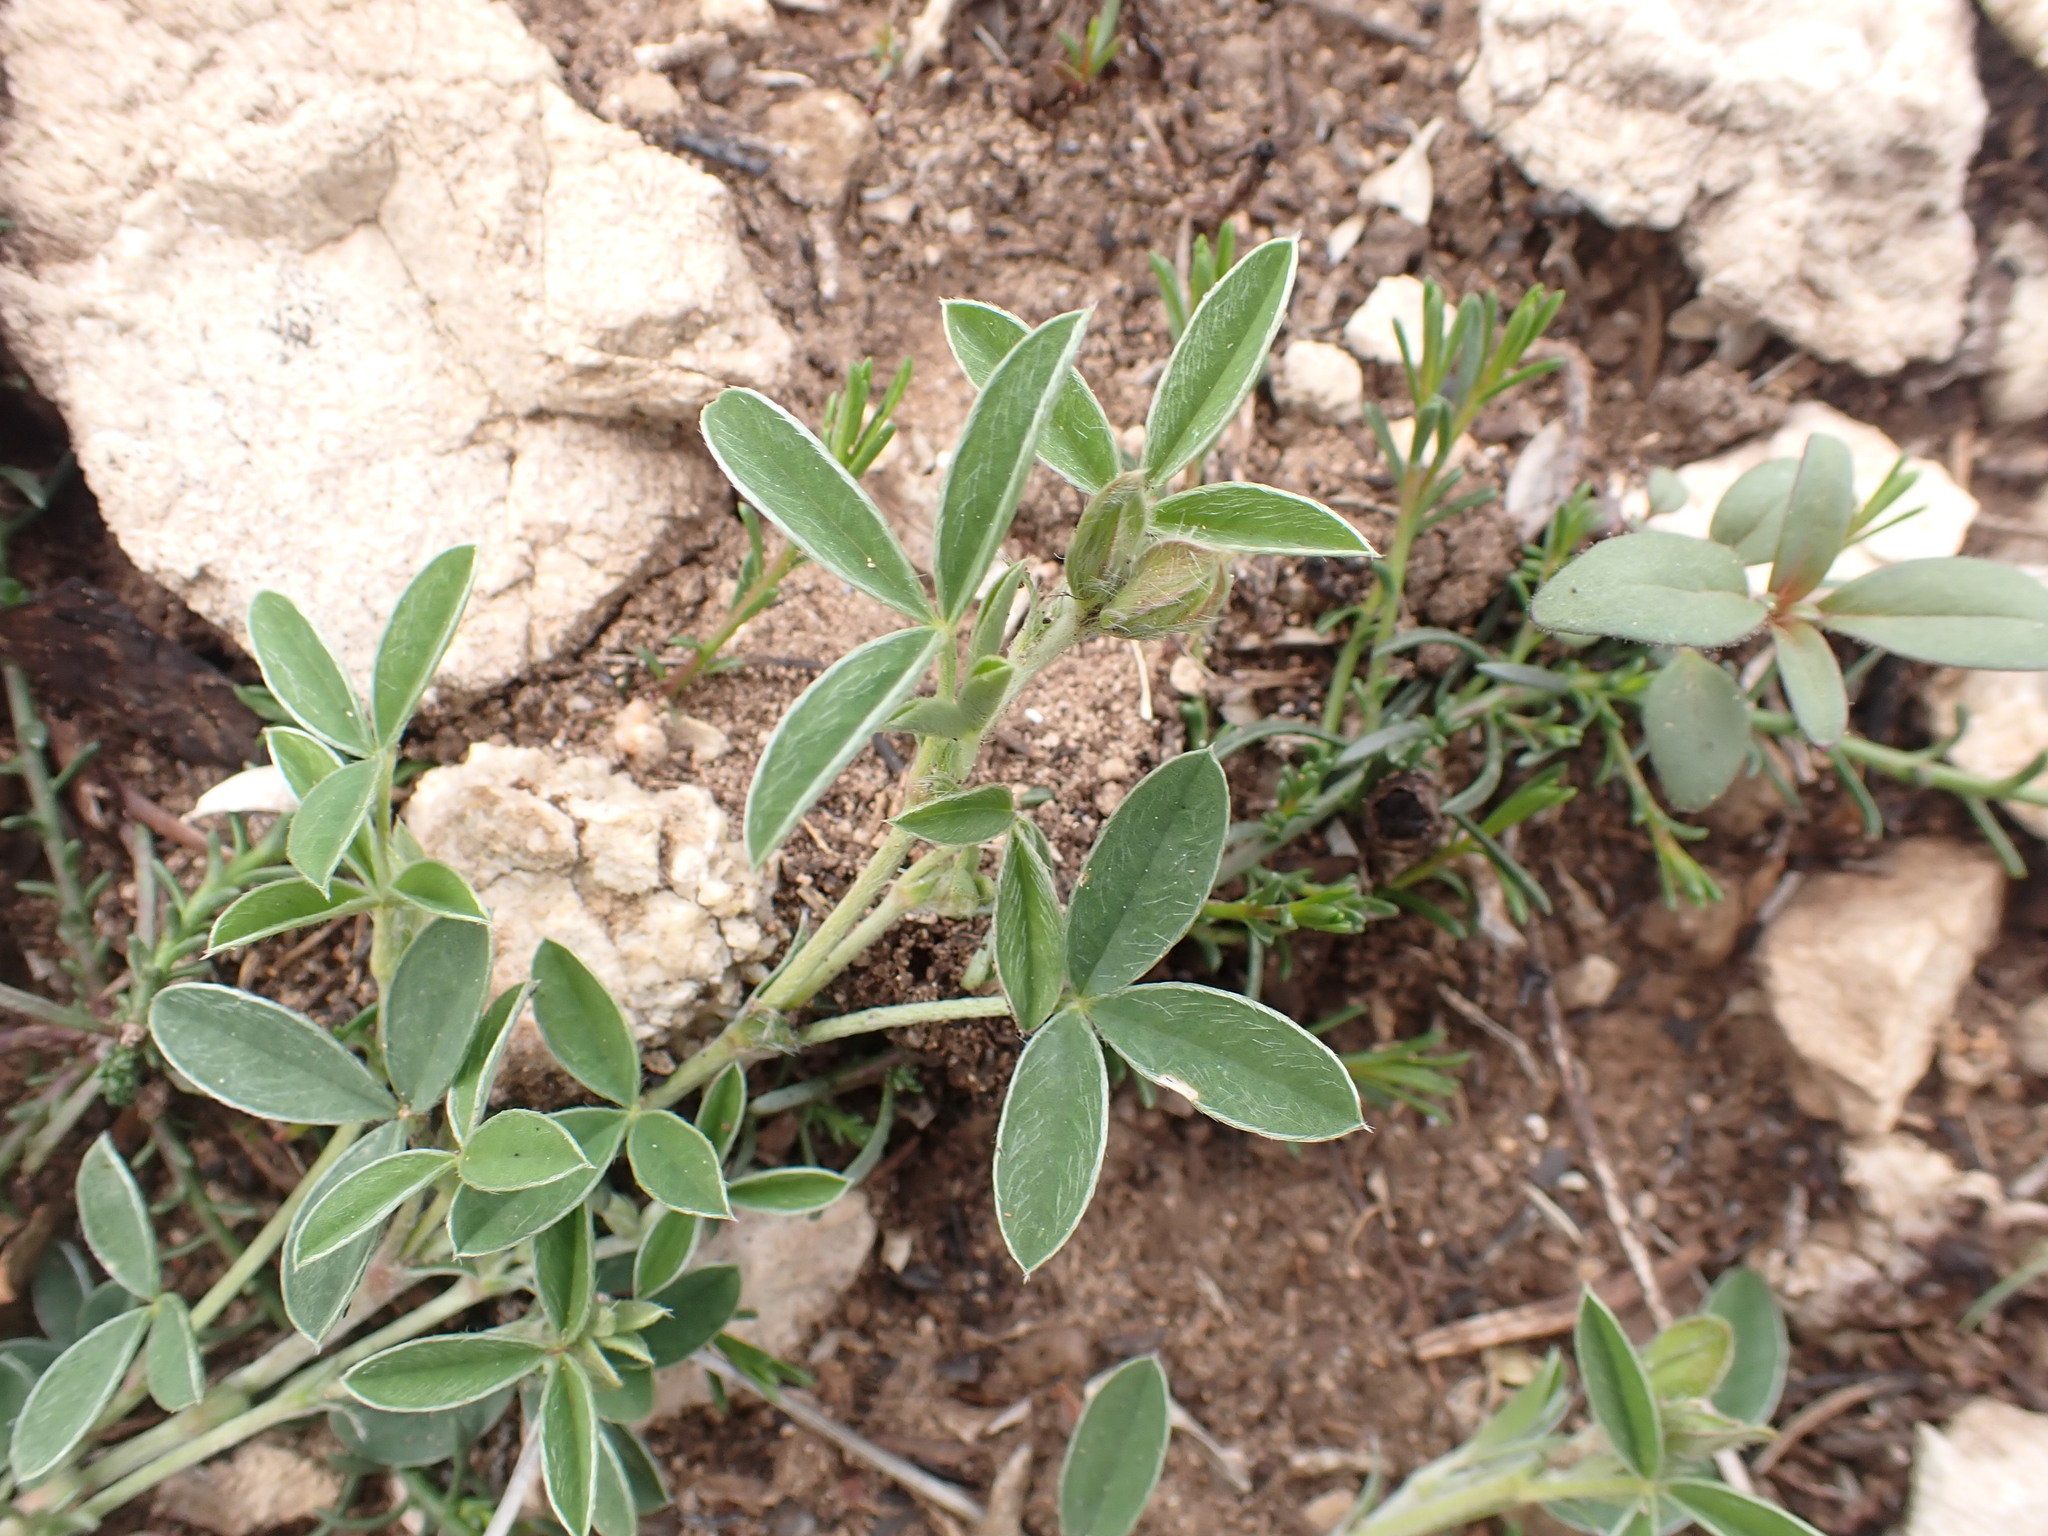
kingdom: Plantae
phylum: Tracheophyta
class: Magnoliopsida
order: Fabales
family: Fabaceae
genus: Argyrolobium
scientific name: Argyrolobium zanonii
